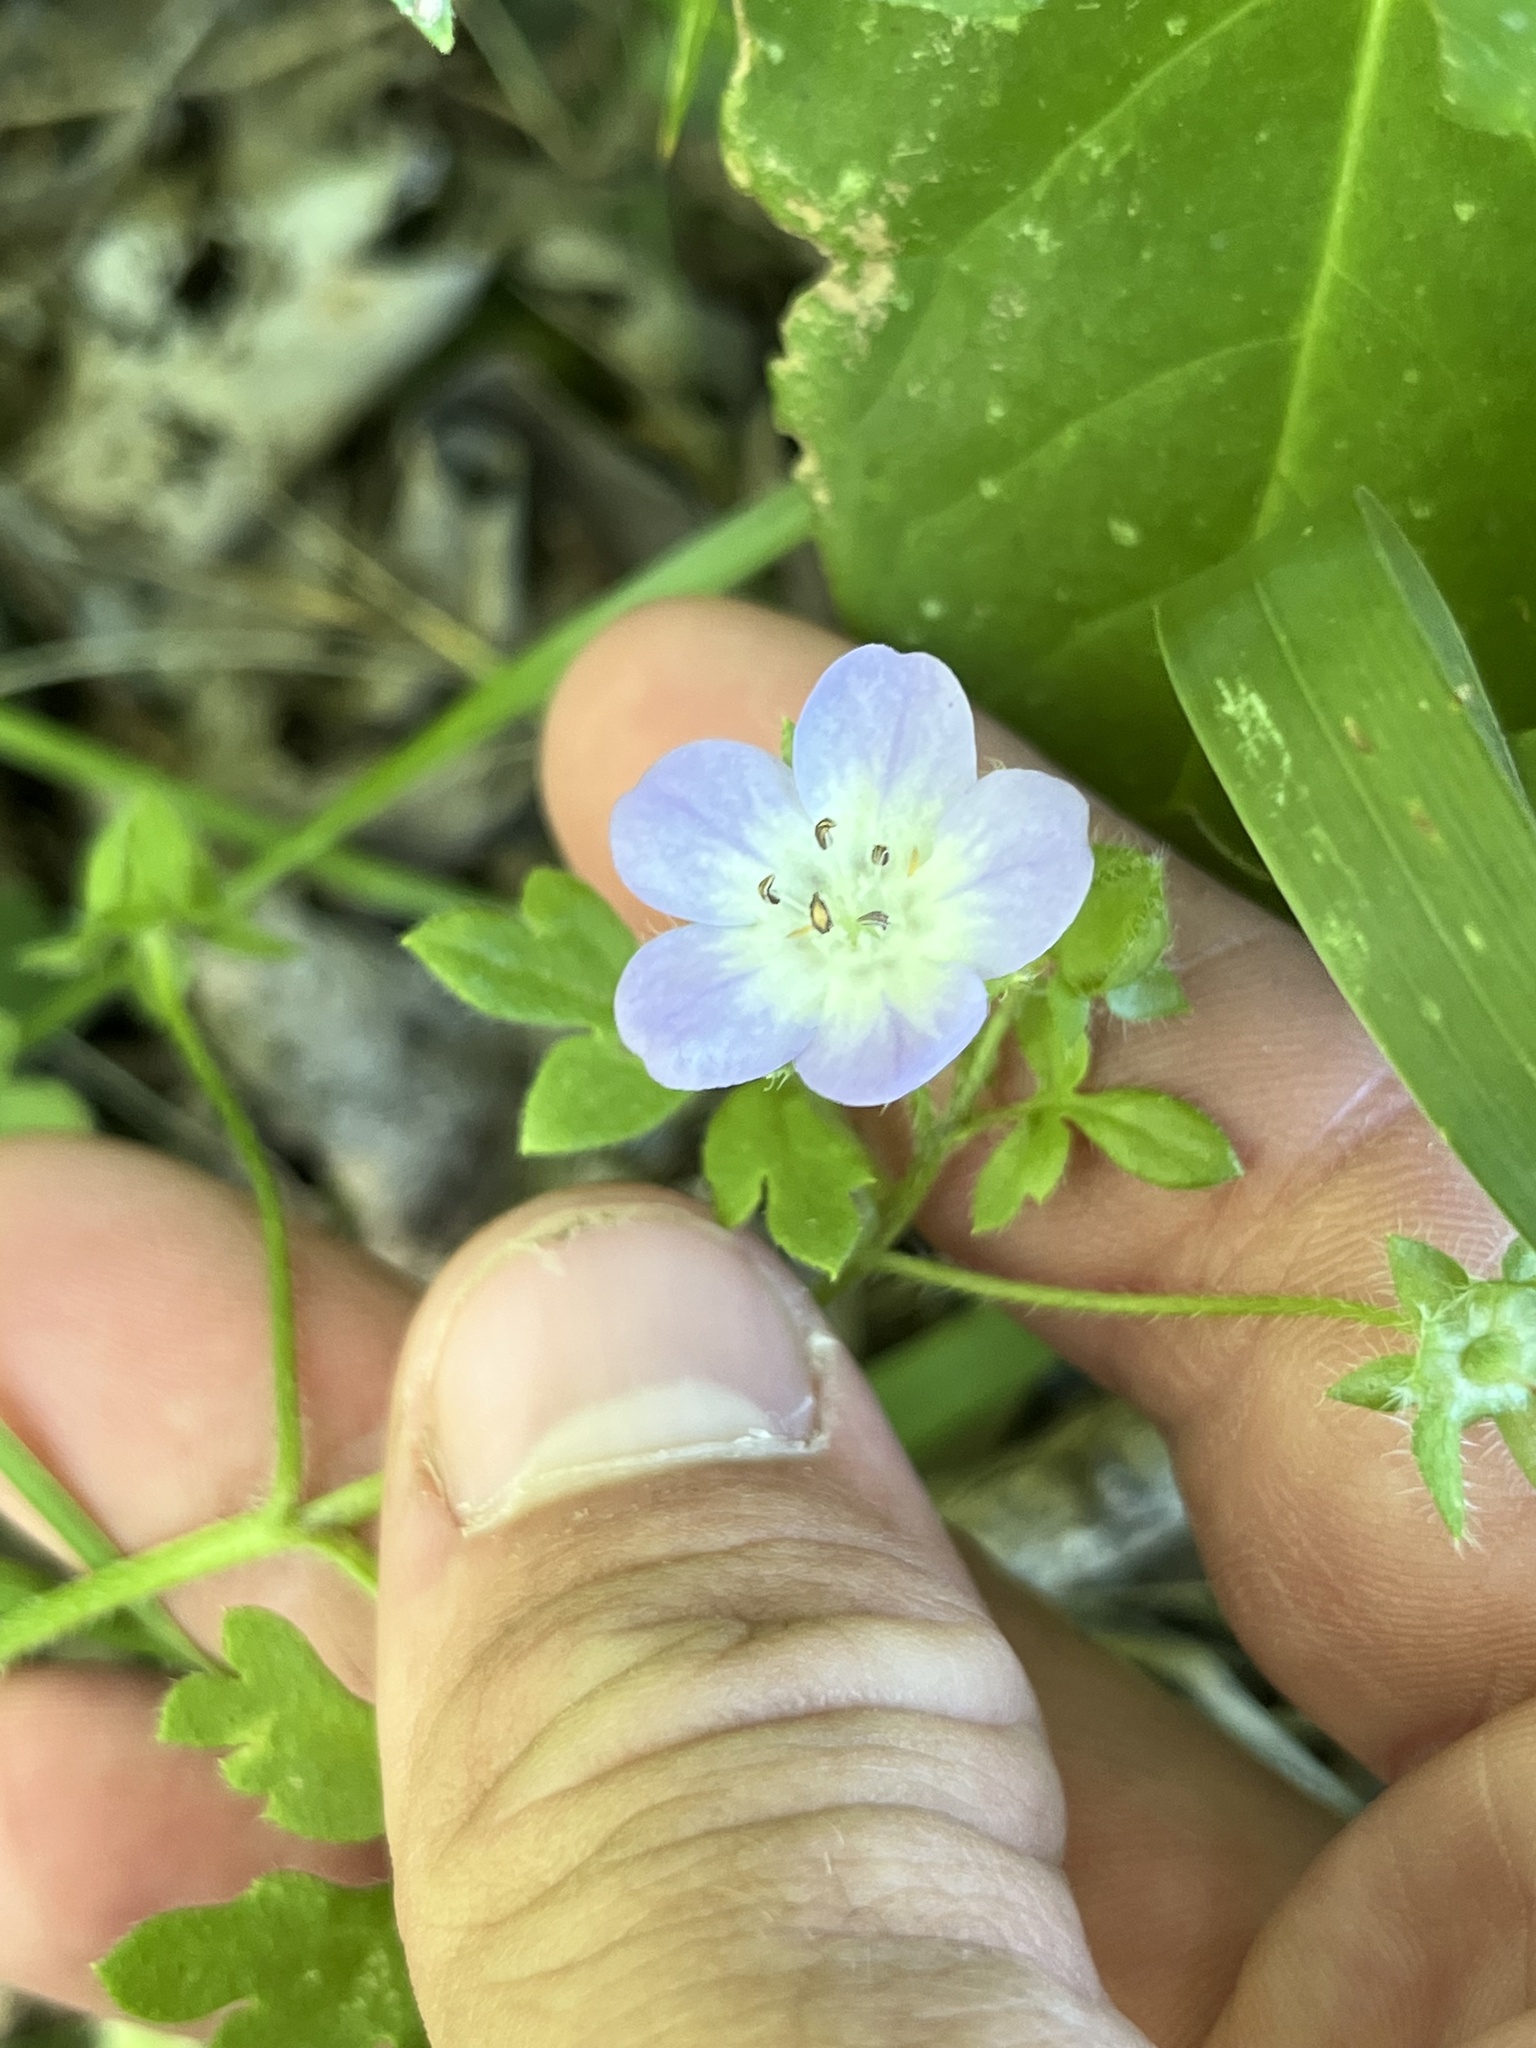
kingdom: Plantae
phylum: Tracheophyta
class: Magnoliopsida
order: Boraginales
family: Hydrophyllaceae
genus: Nemophila
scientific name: Nemophila phacelioides
